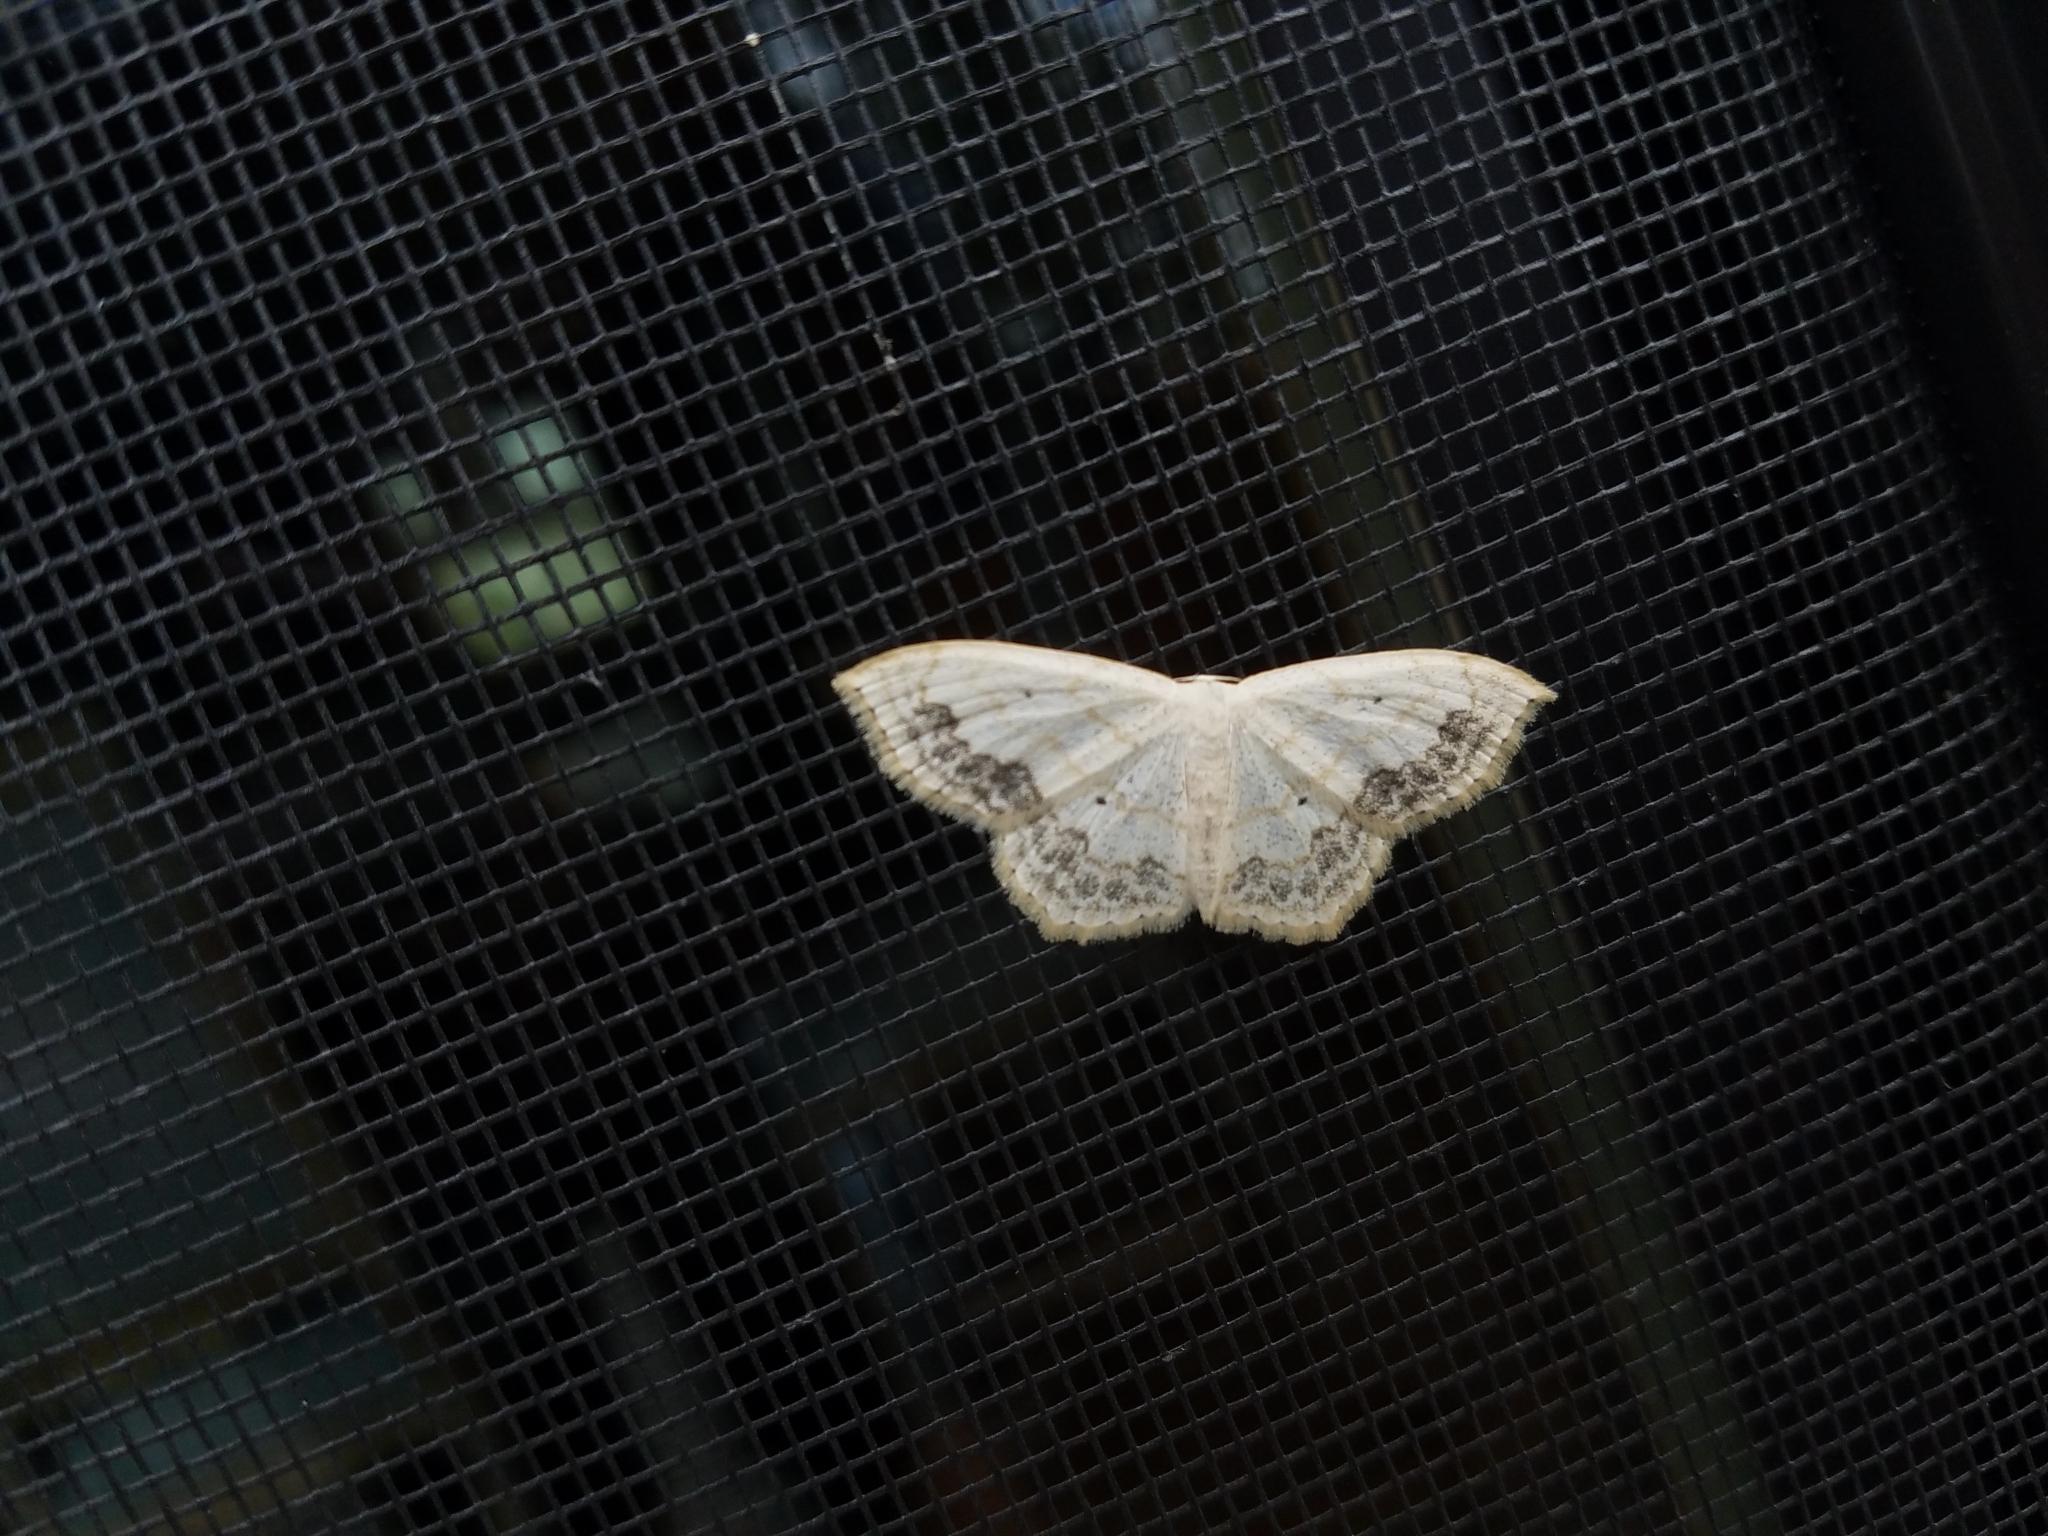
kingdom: Animalia
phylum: Arthropoda
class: Insecta
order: Lepidoptera
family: Geometridae
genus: Scopula
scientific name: Scopula limboundata
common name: Large lace border
